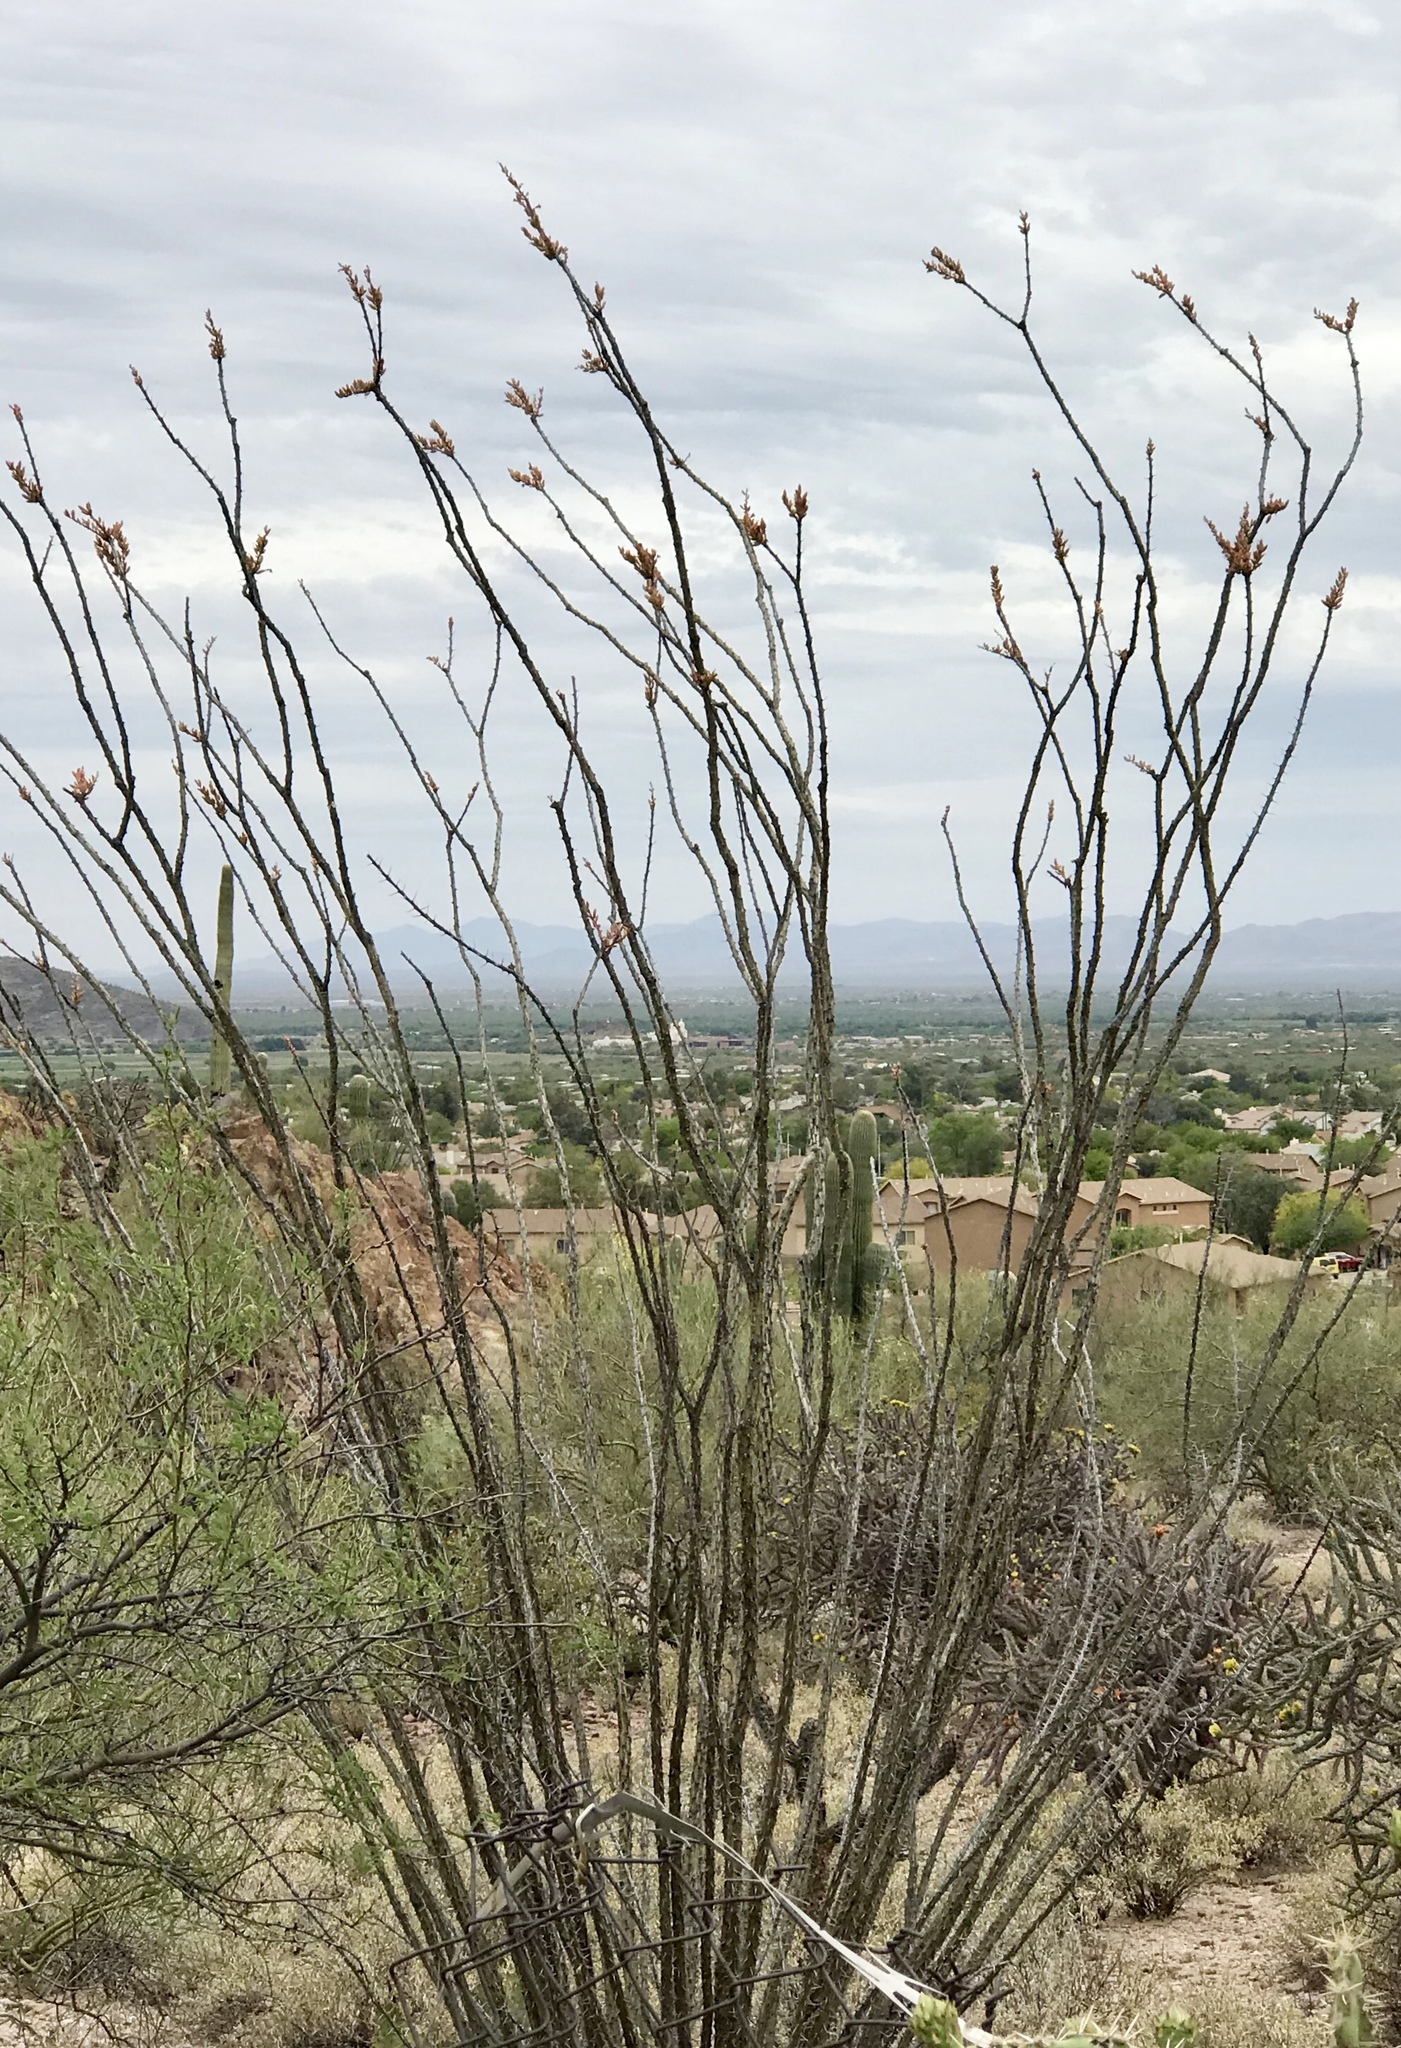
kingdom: Plantae
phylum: Tracheophyta
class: Magnoliopsida
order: Ericales
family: Fouquieriaceae
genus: Fouquieria
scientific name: Fouquieria splendens
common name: Vine-cactus
